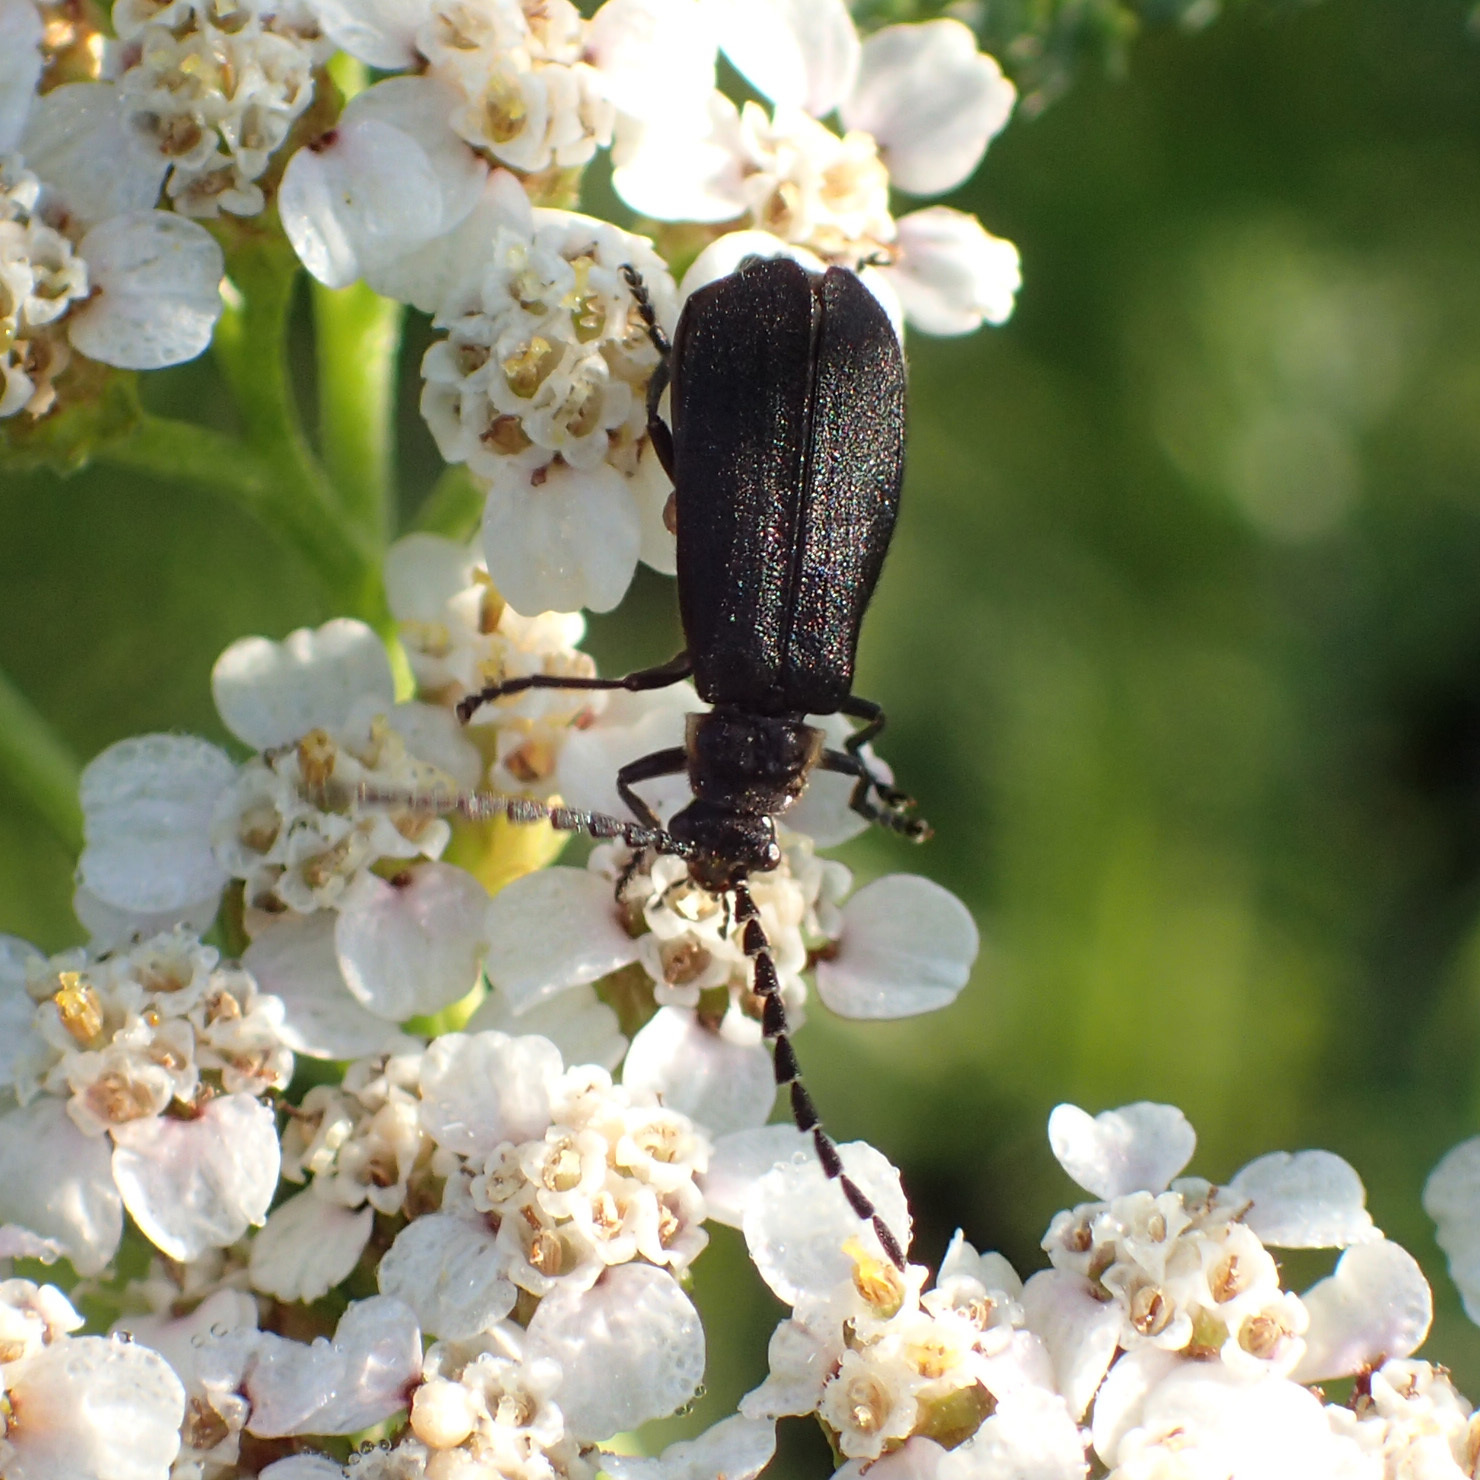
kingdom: Animalia
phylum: Arthropoda
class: Insecta
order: Coleoptera
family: Cantharidae
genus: Polemius
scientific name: Polemius laticornis
